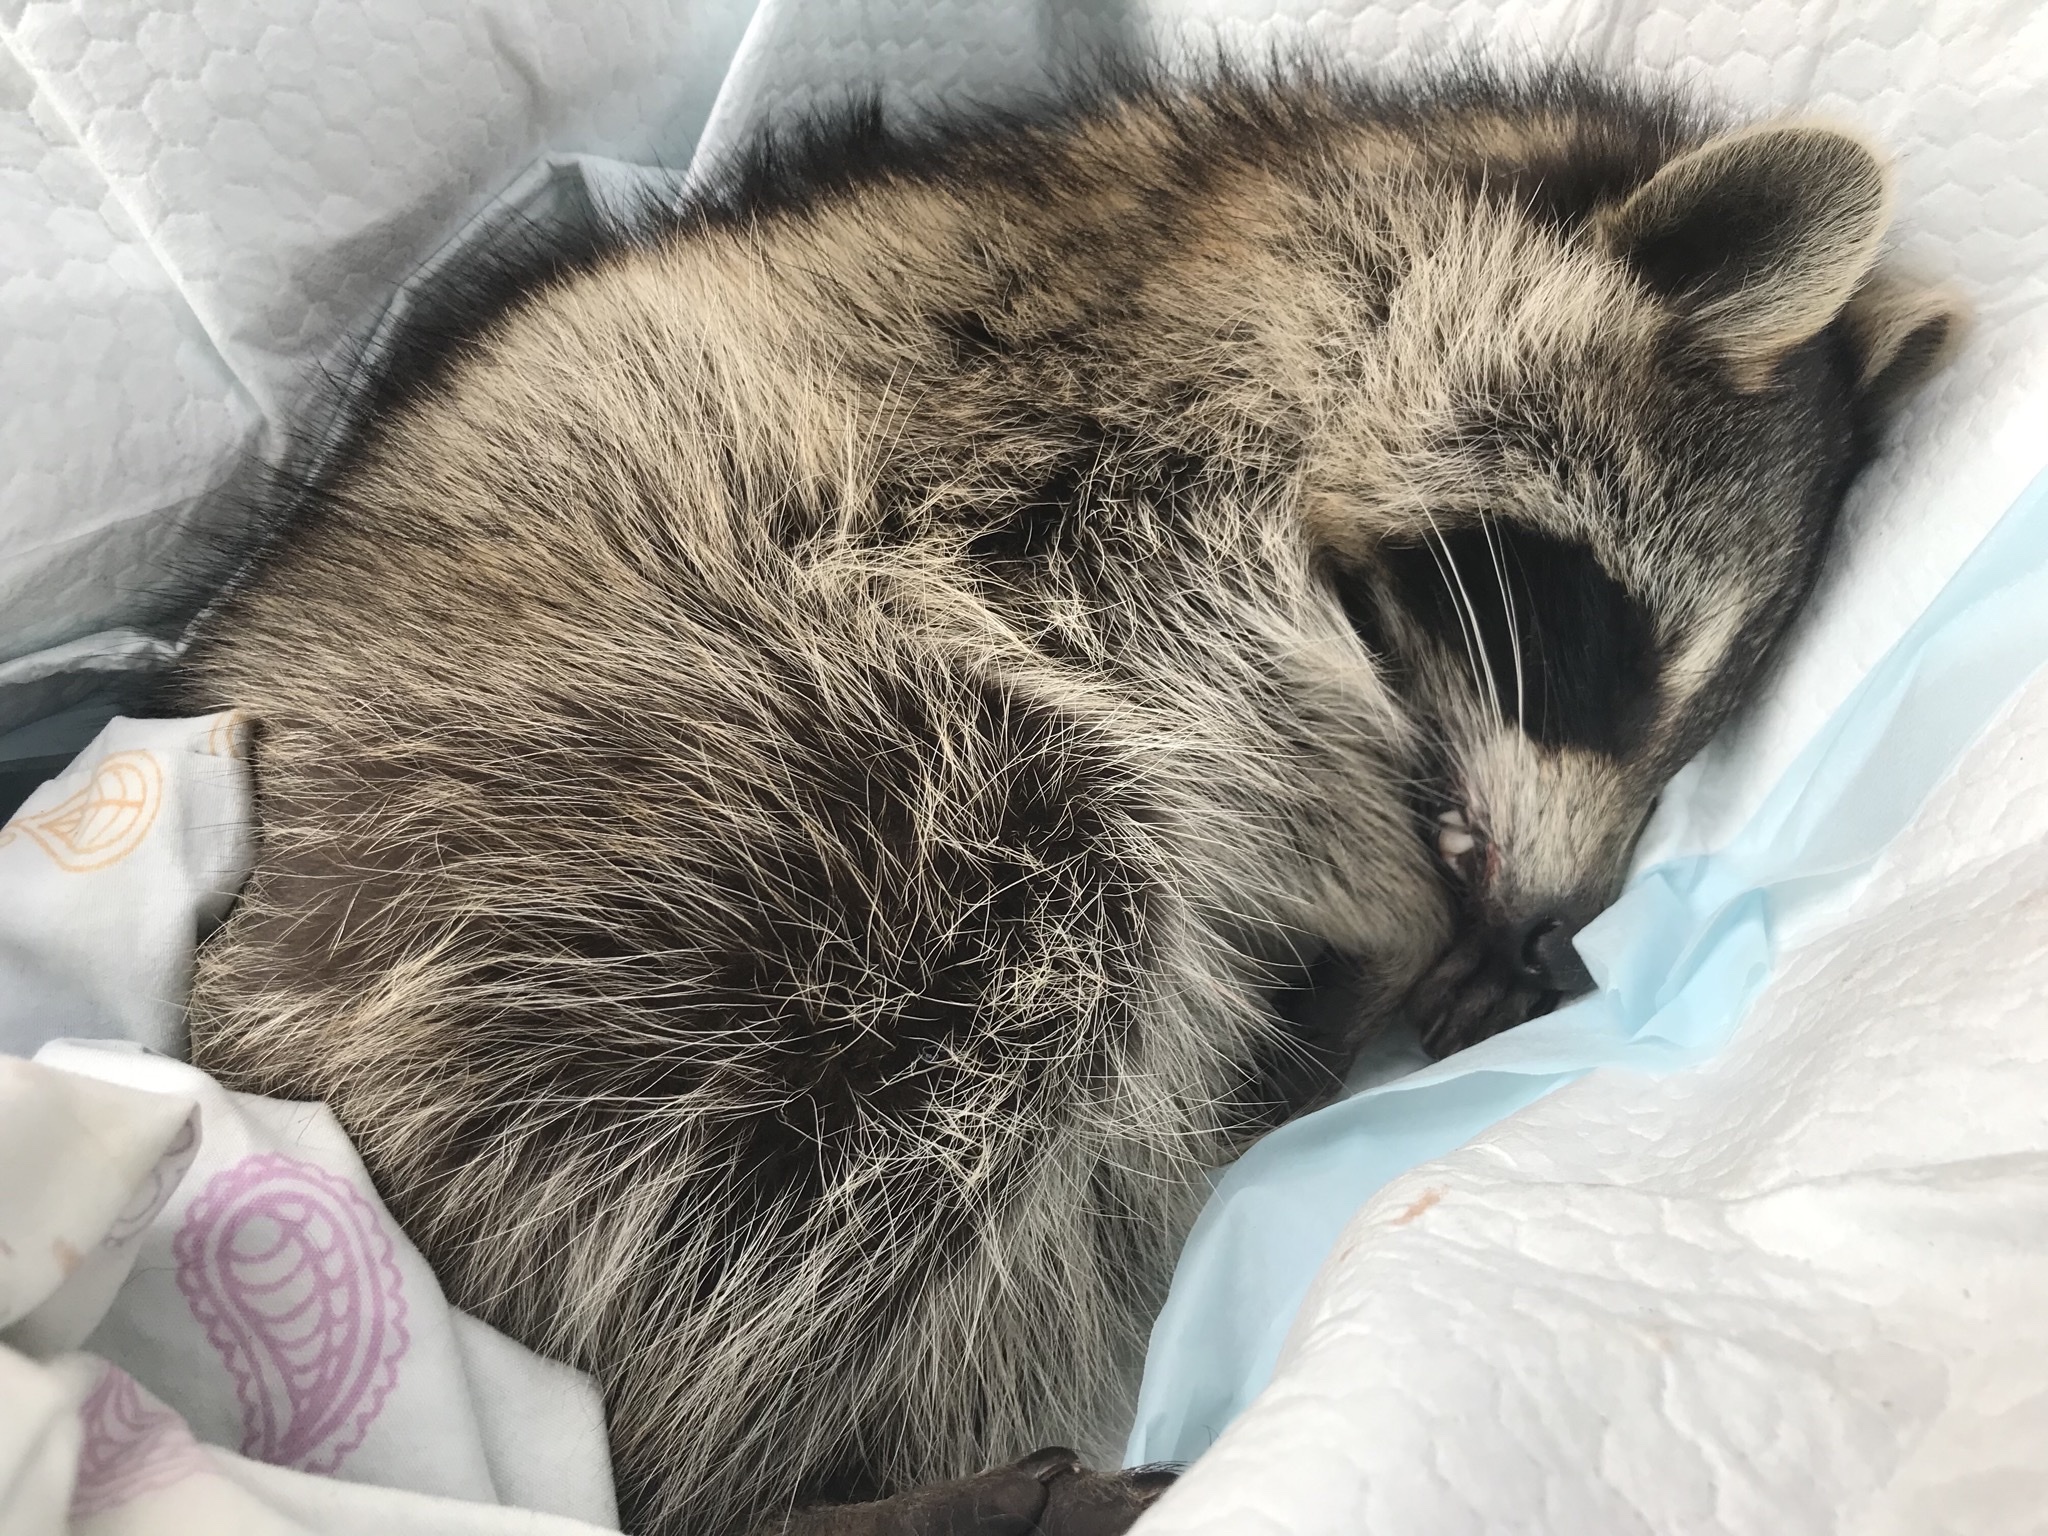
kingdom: Animalia
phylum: Chordata
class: Mammalia
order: Carnivora
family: Procyonidae
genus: Procyon
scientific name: Procyon lotor
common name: Raccoon
